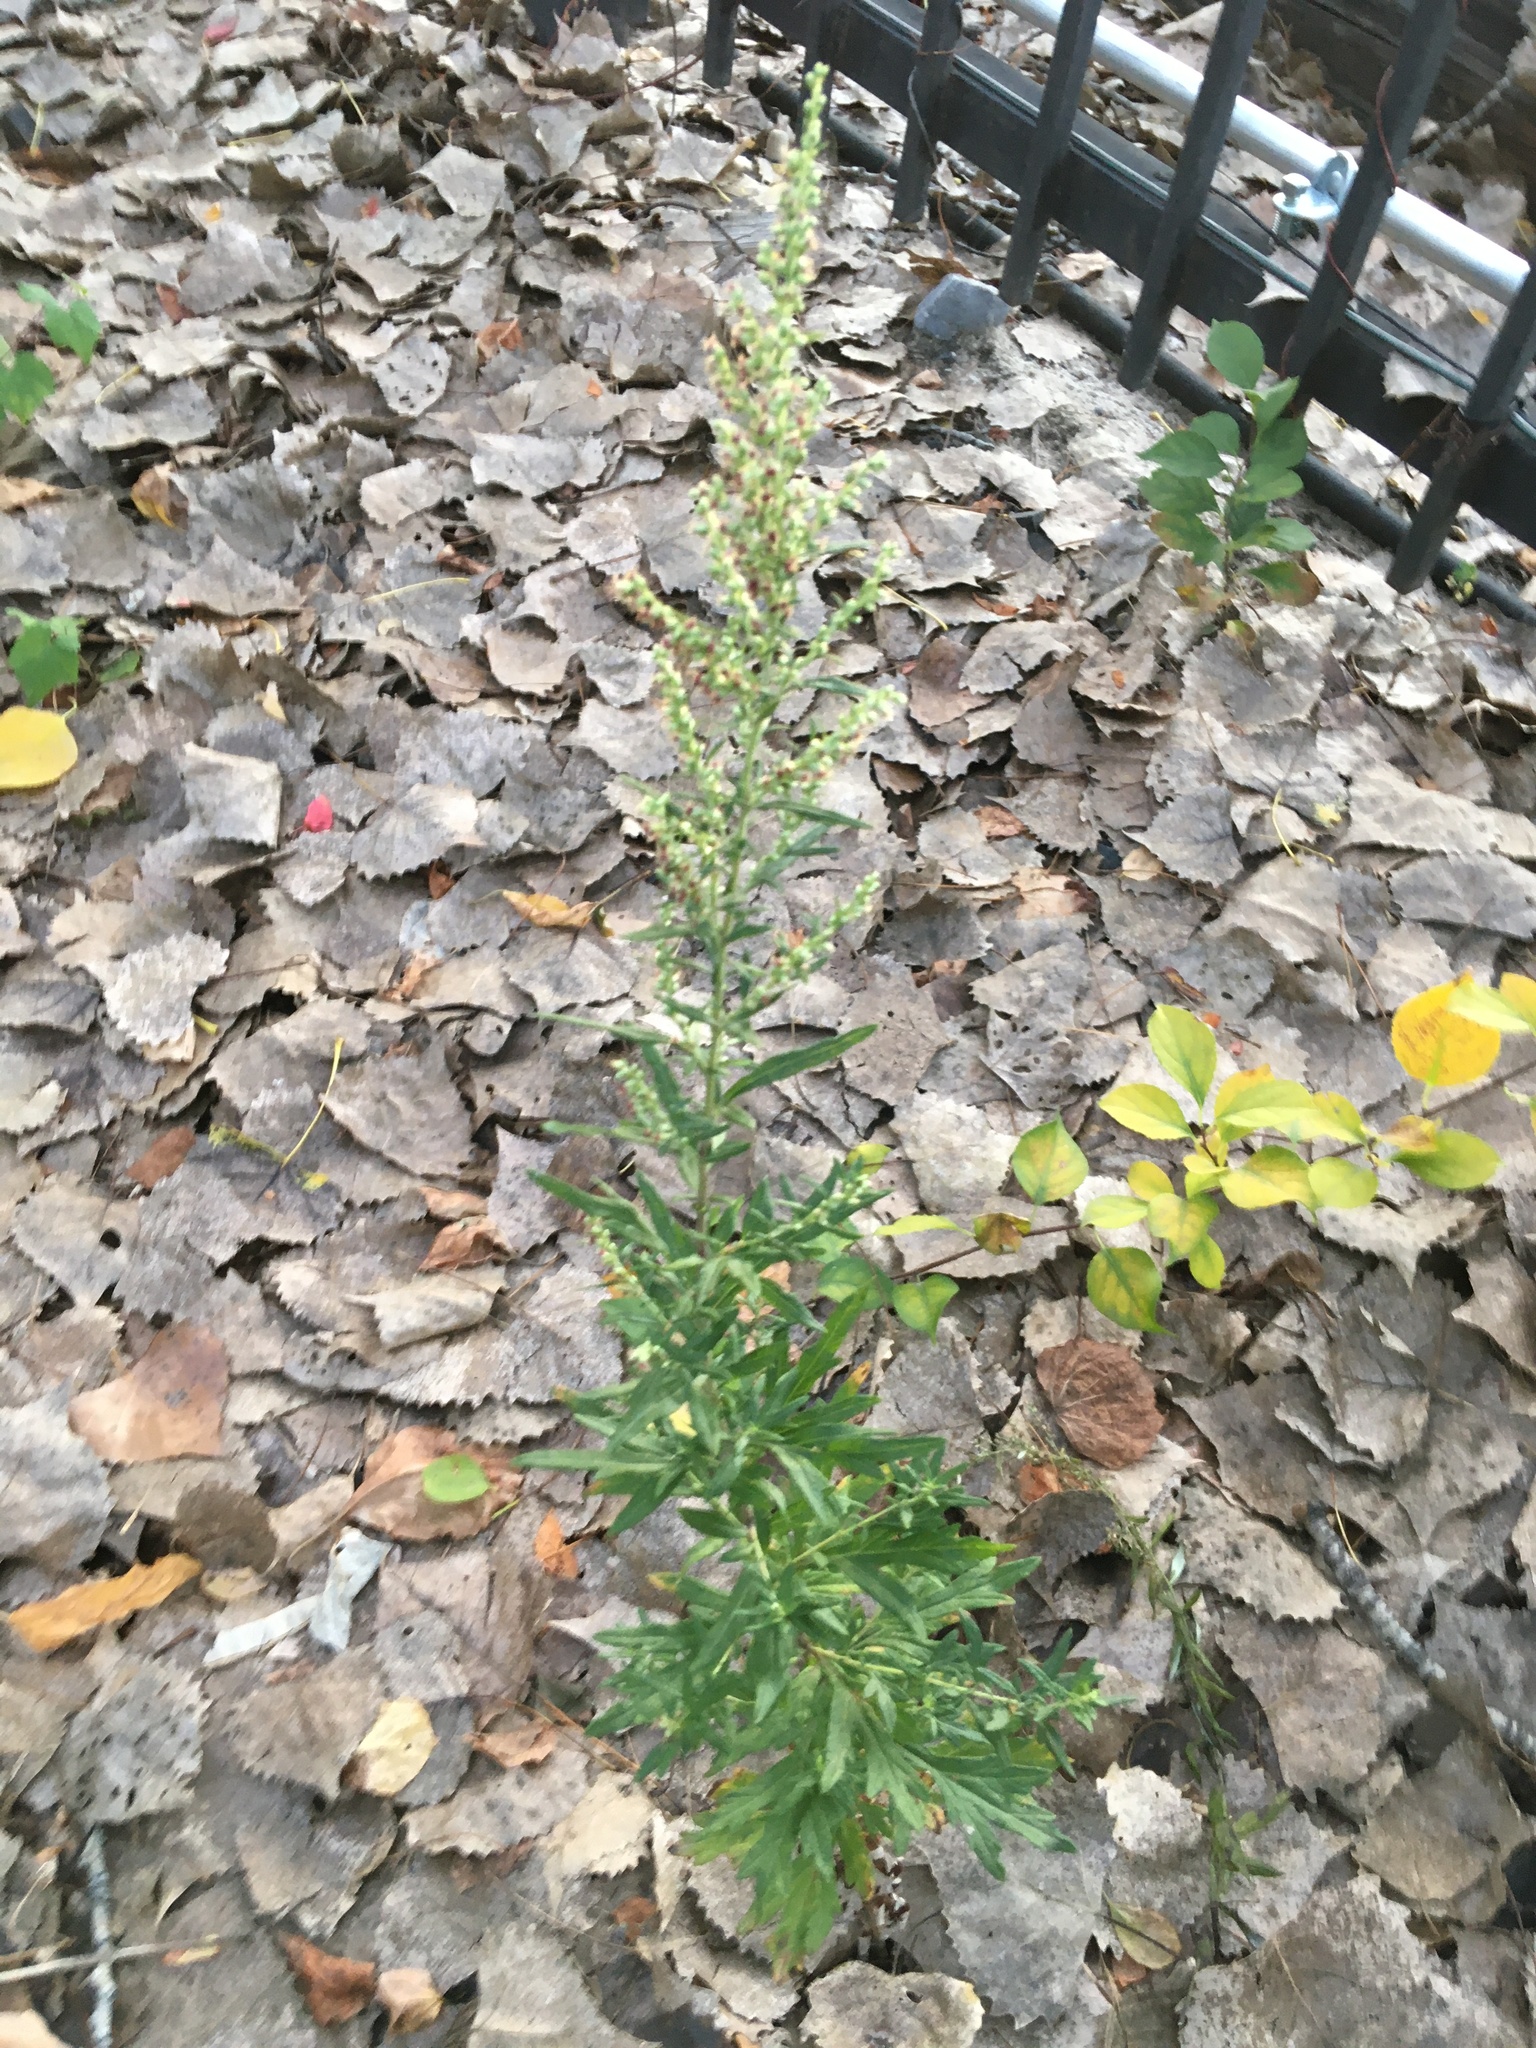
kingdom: Plantae
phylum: Tracheophyta
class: Magnoliopsida
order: Asterales
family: Asteraceae
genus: Artemisia
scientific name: Artemisia vulgaris
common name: Mugwort
